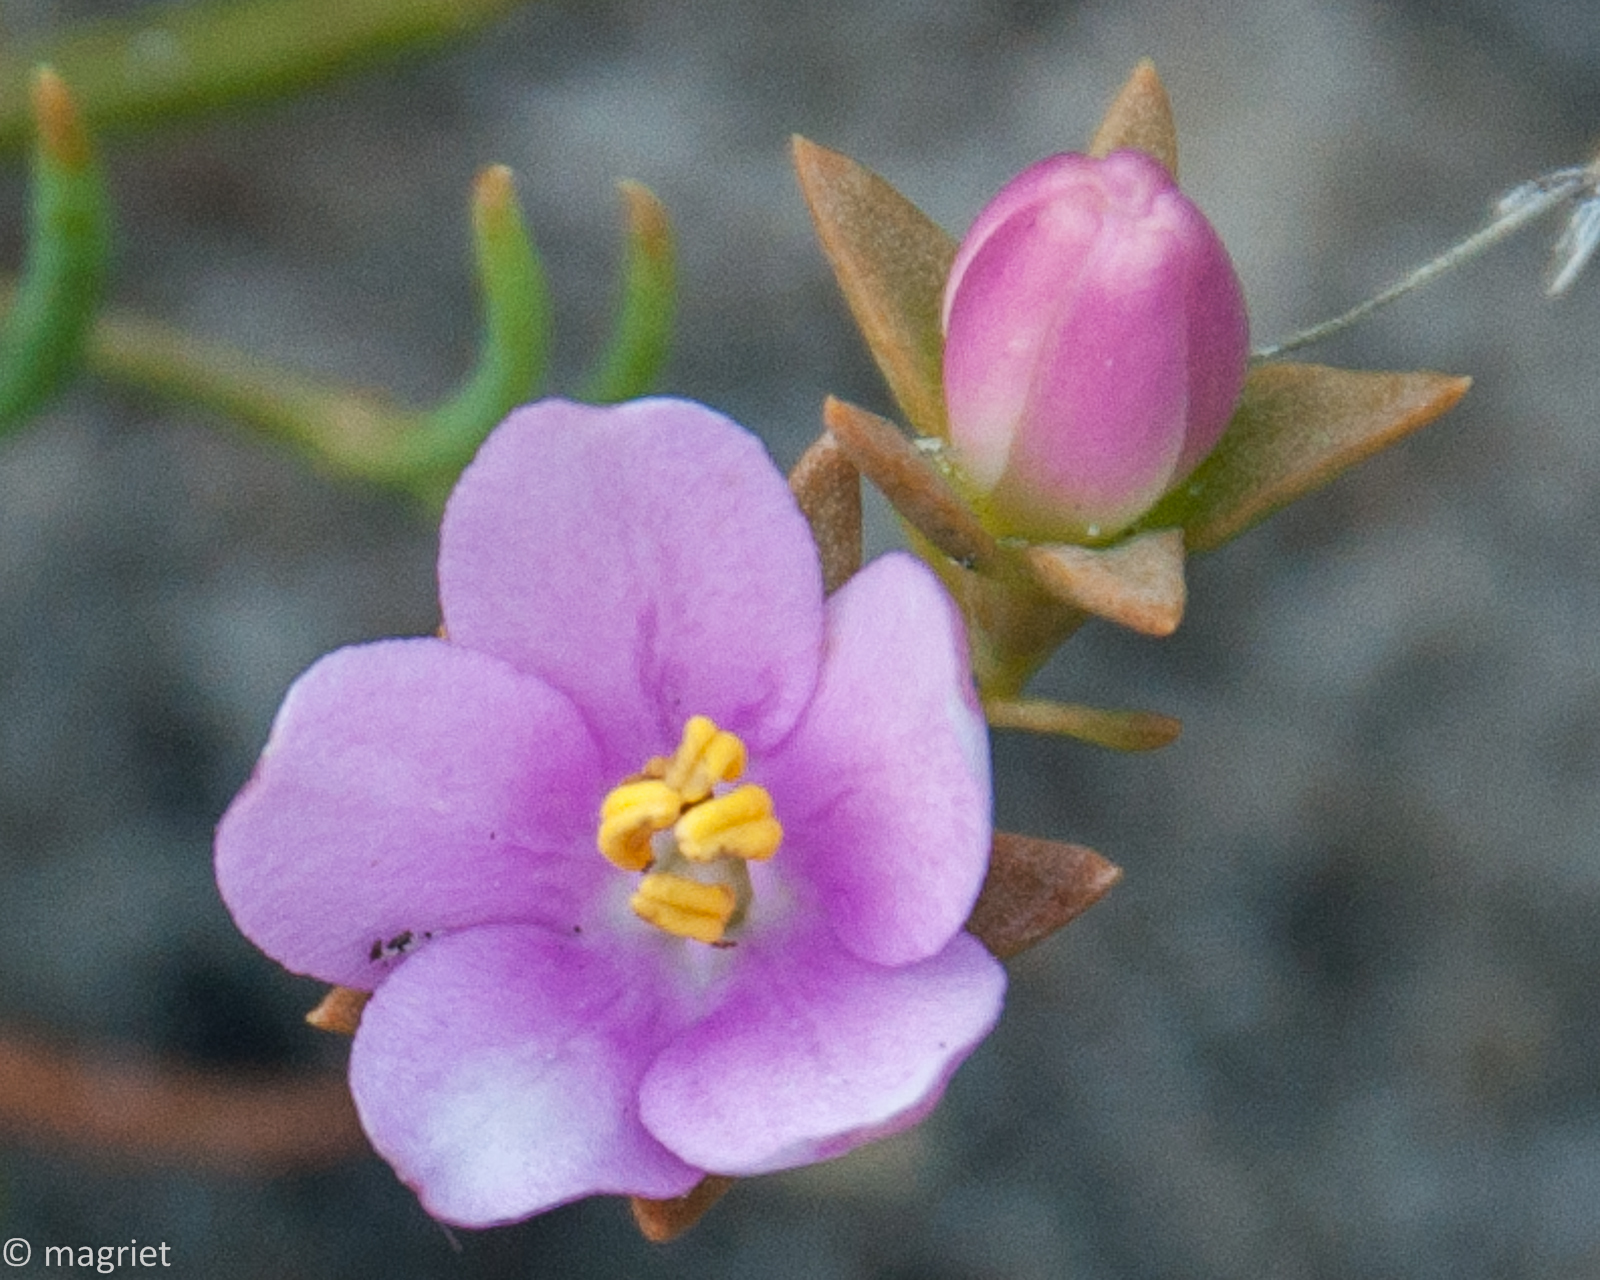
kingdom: Plantae
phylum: Tracheophyta
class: Magnoliopsida
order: Gentianales
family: Gentianaceae
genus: Chironia
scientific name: Chironia linoides
